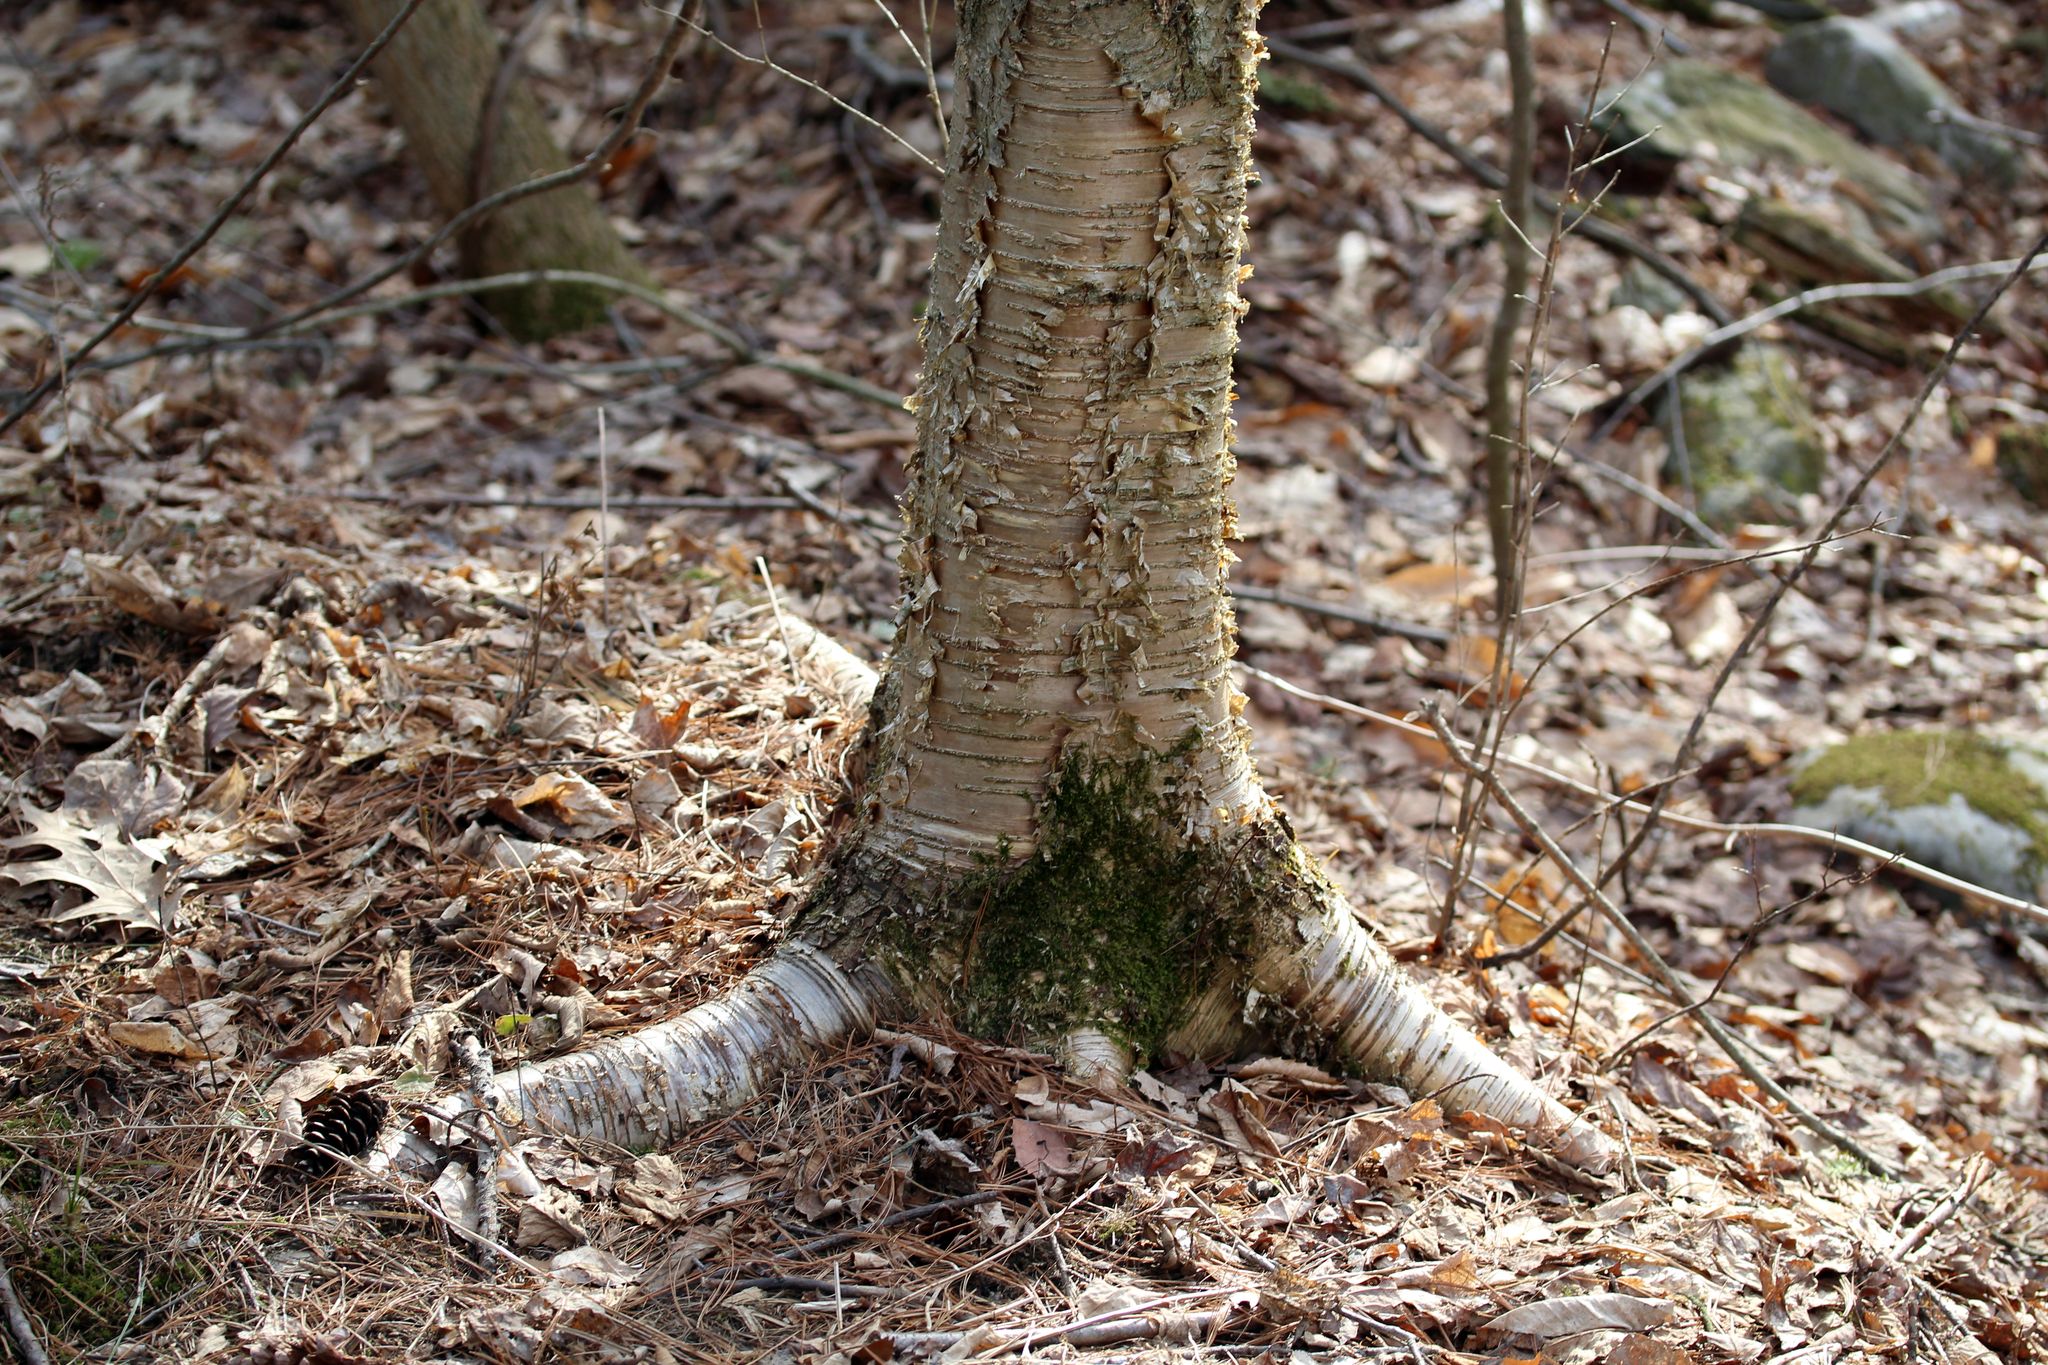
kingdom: Plantae
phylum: Tracheophyta
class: Magnoliopsida
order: Fagales
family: Betulaceae
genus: Betula
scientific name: Betula alleghaniensis
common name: Yellow birch
